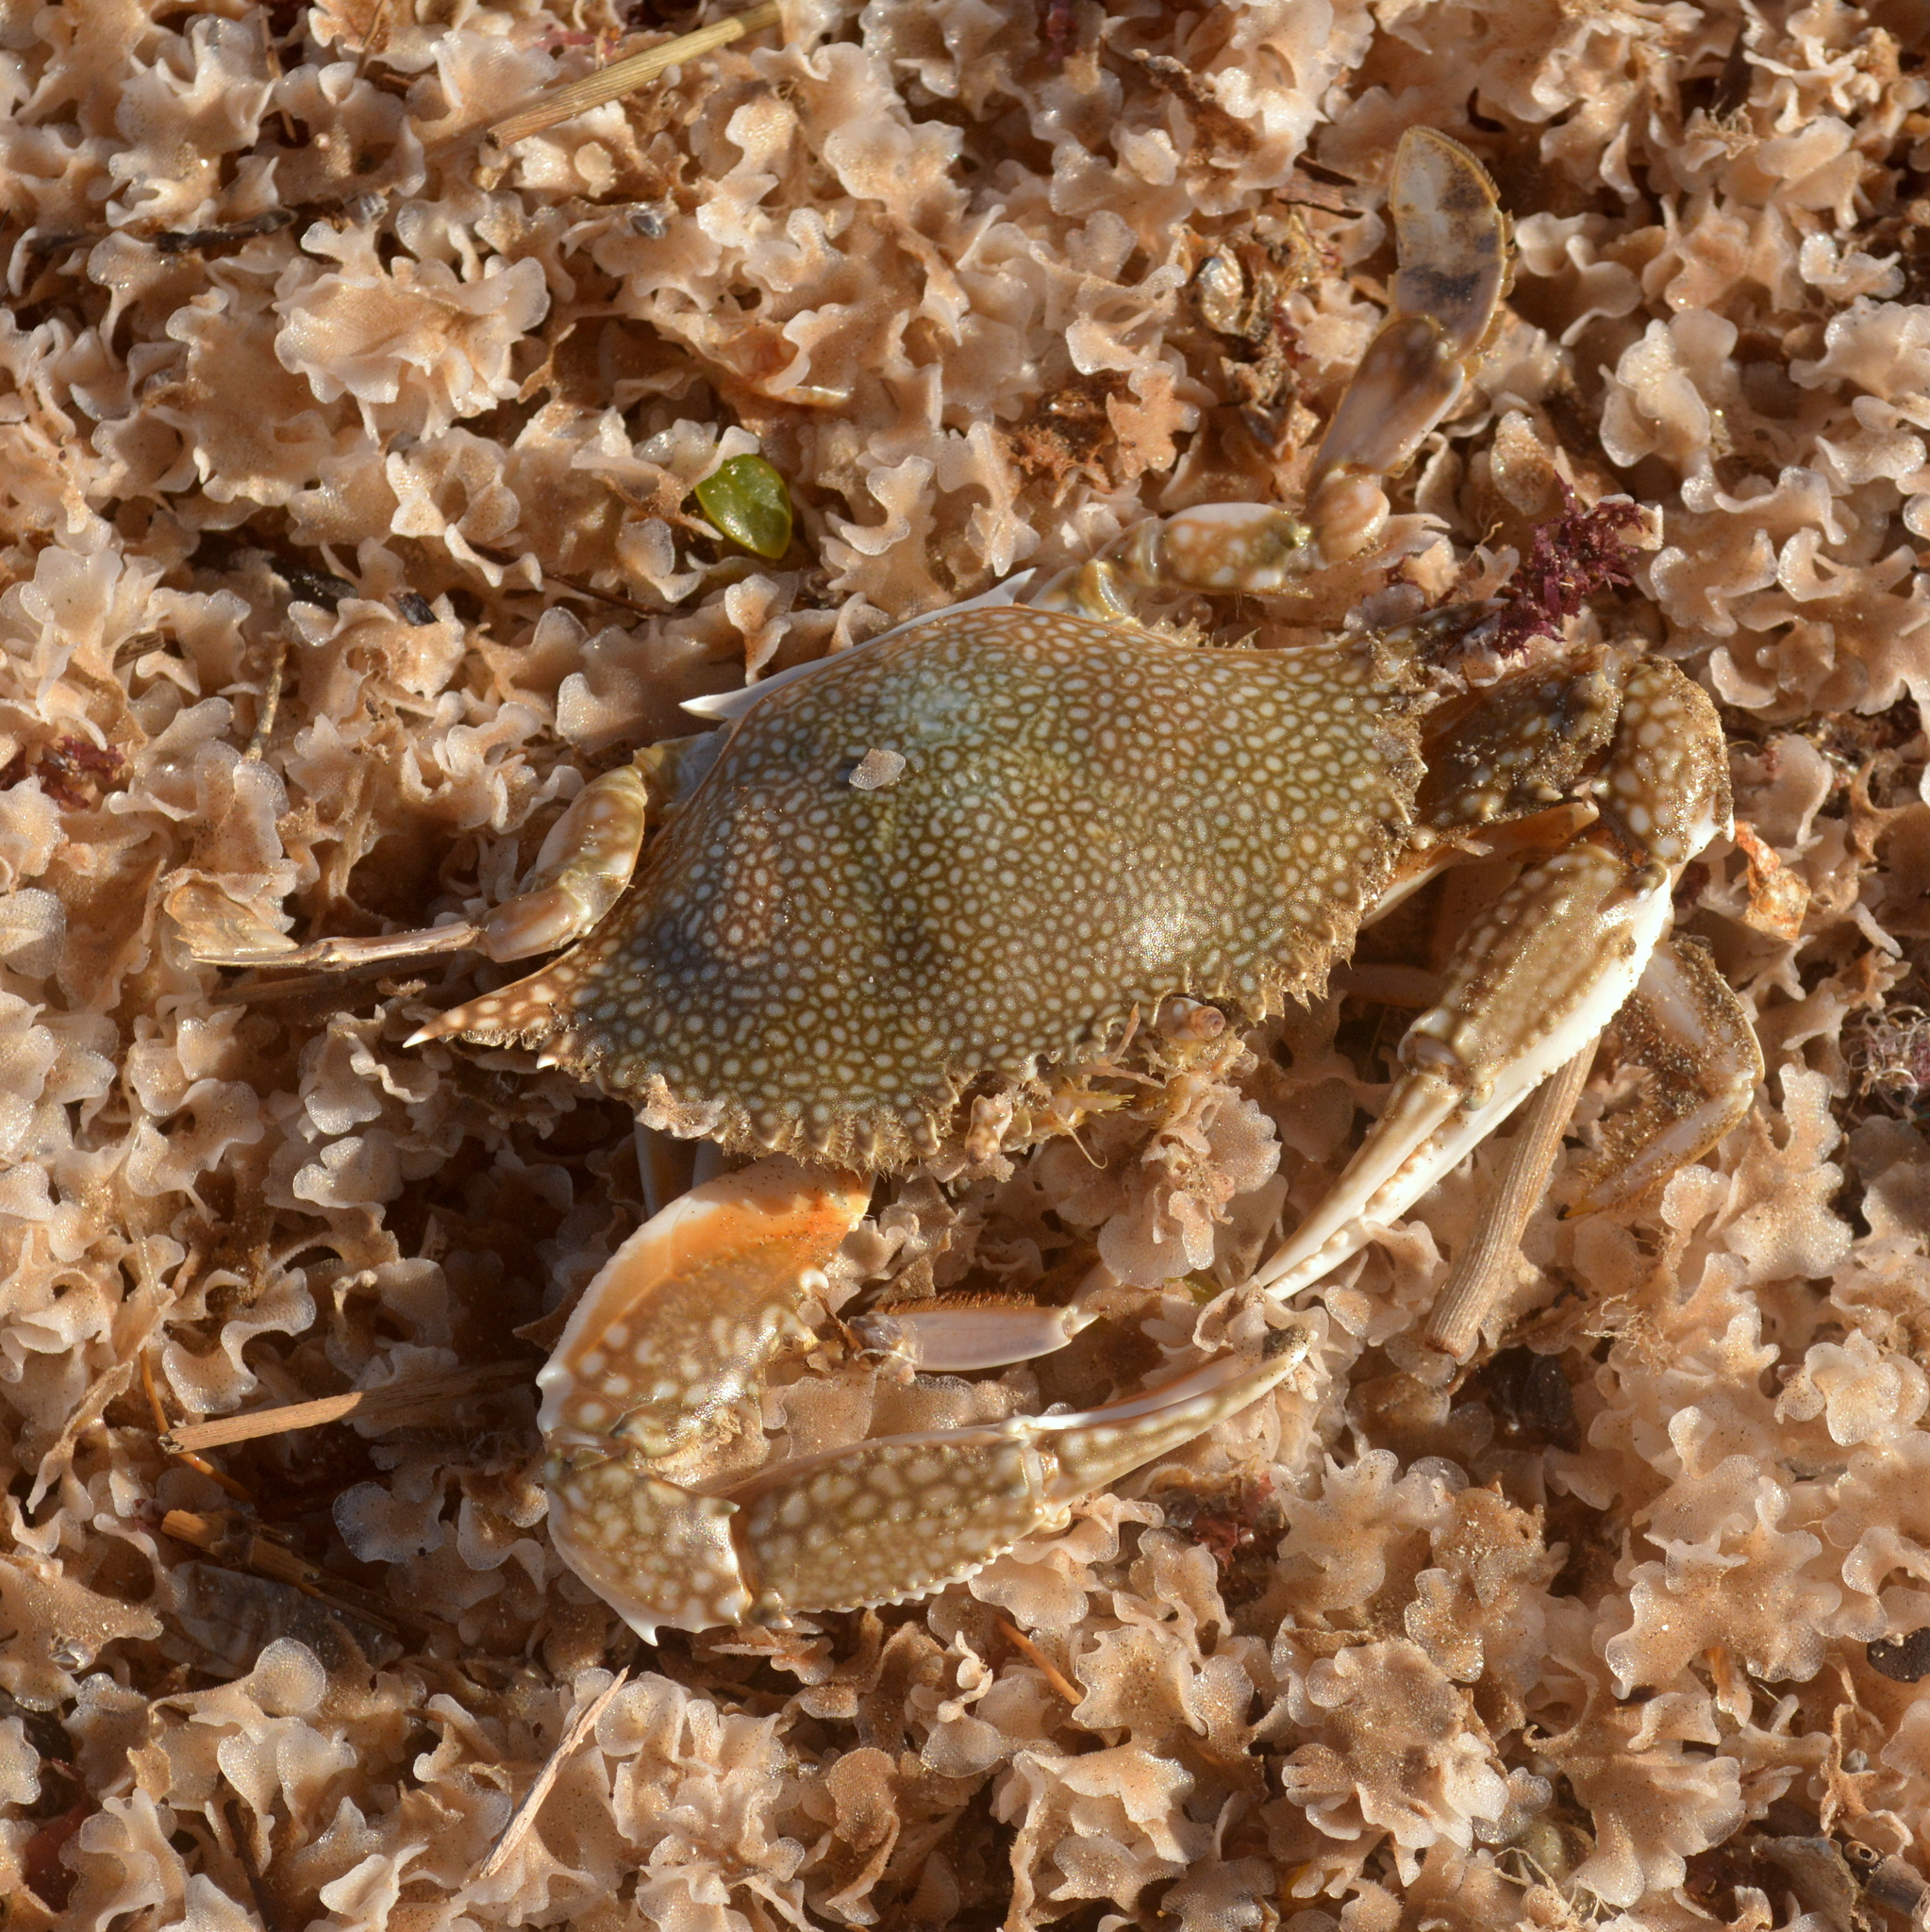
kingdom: Animalia
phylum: Arthropoda
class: Malacostraca
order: Decapoda
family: Portunidae
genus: Arenaeus
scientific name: Arenaeus cribrarius
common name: Speckled crab
